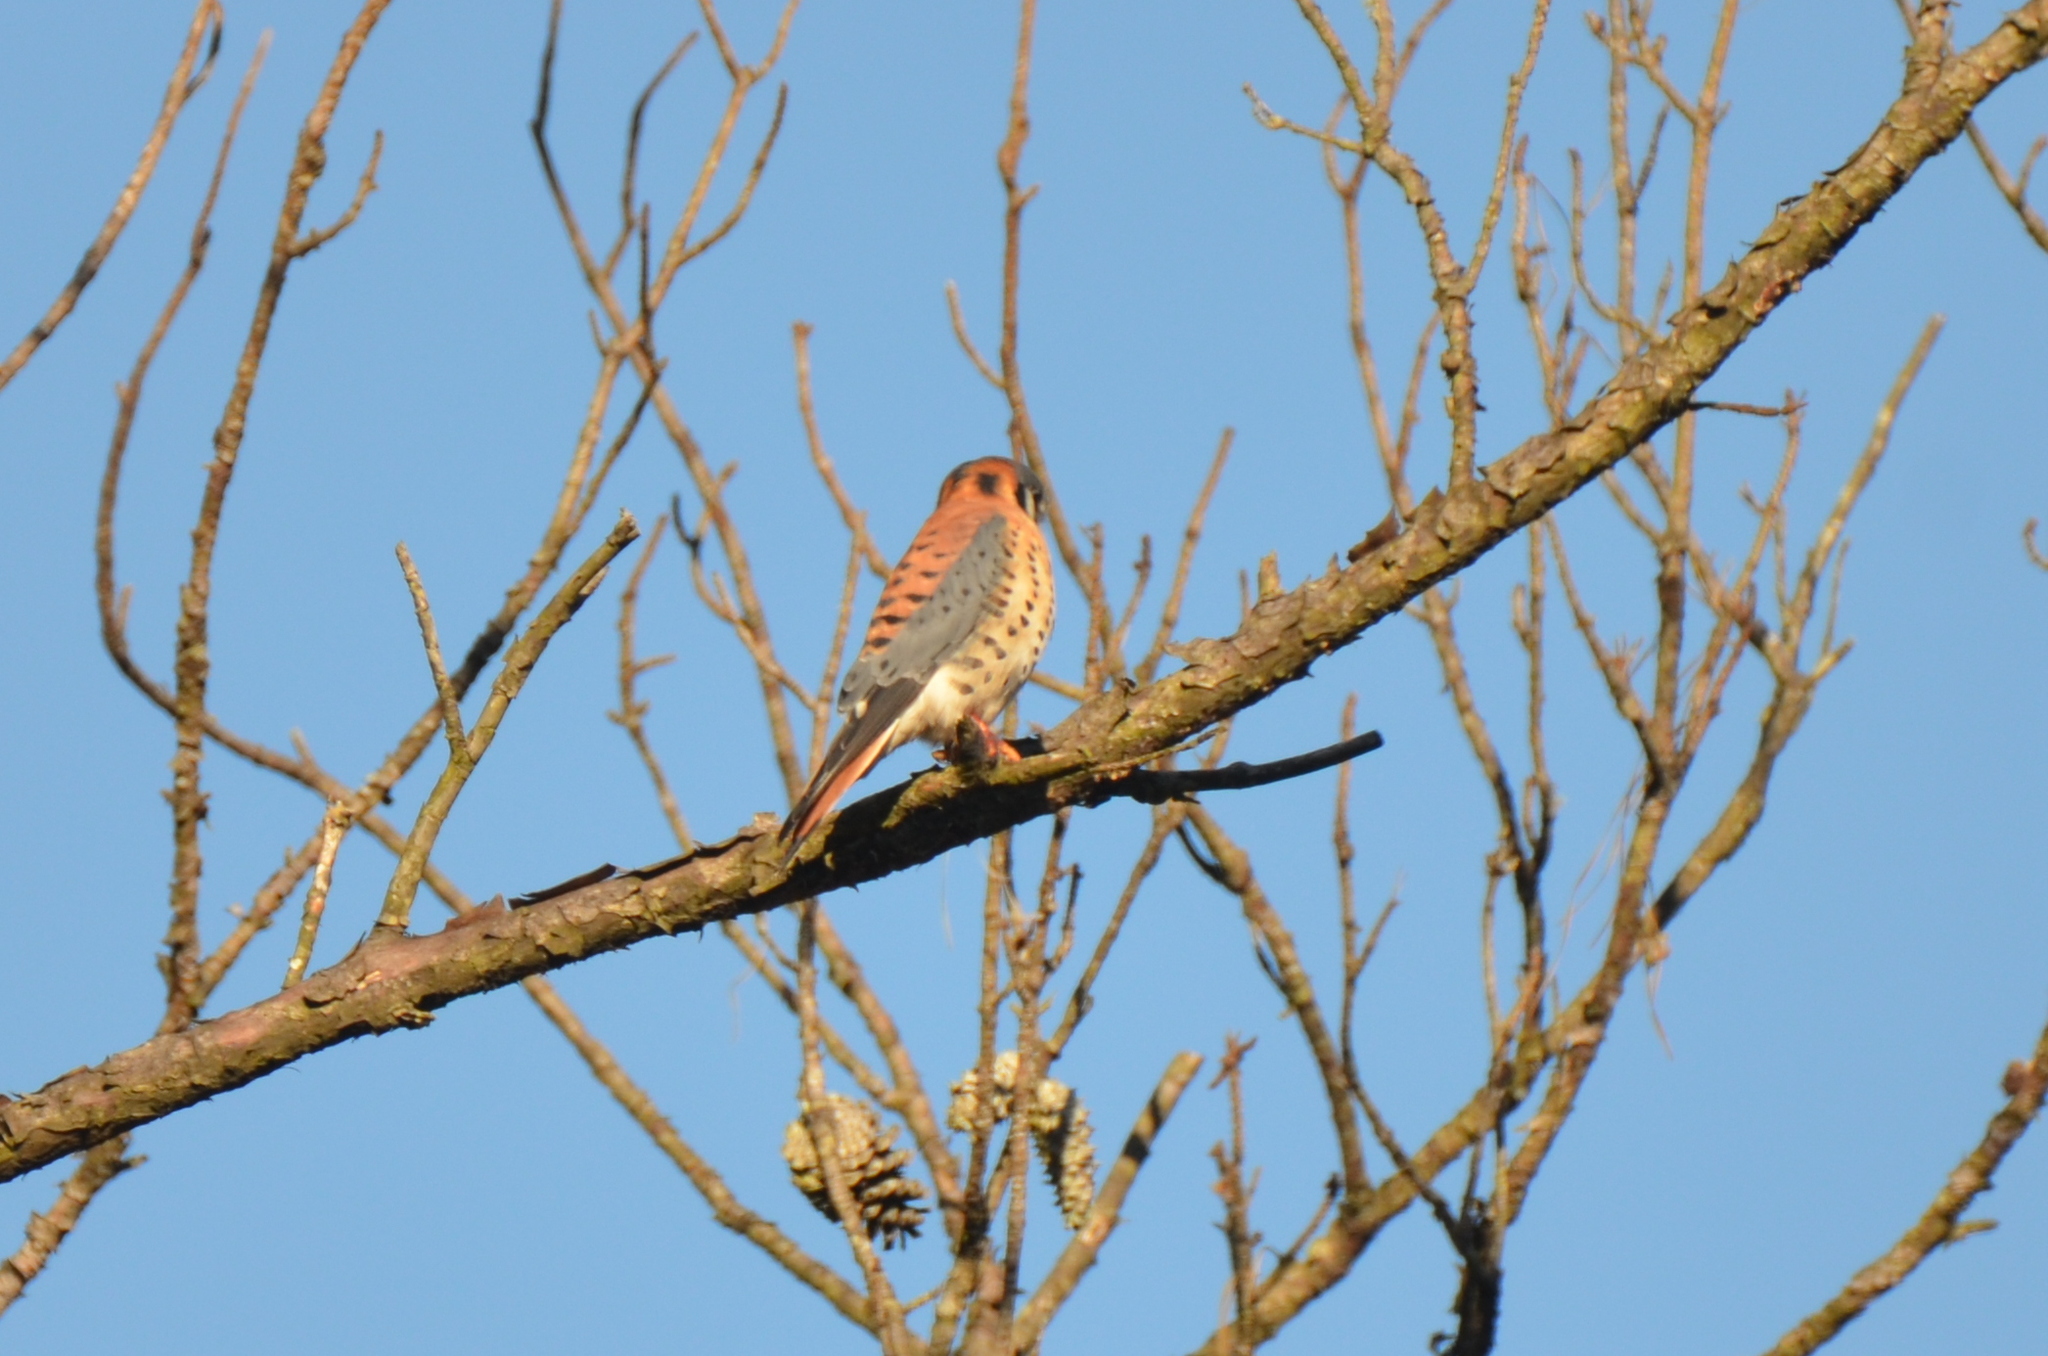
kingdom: Animalia
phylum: Chordata
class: Aves
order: Falconiformes
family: Falconidae
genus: Falco
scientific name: Falco sparverius
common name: American kestrel
